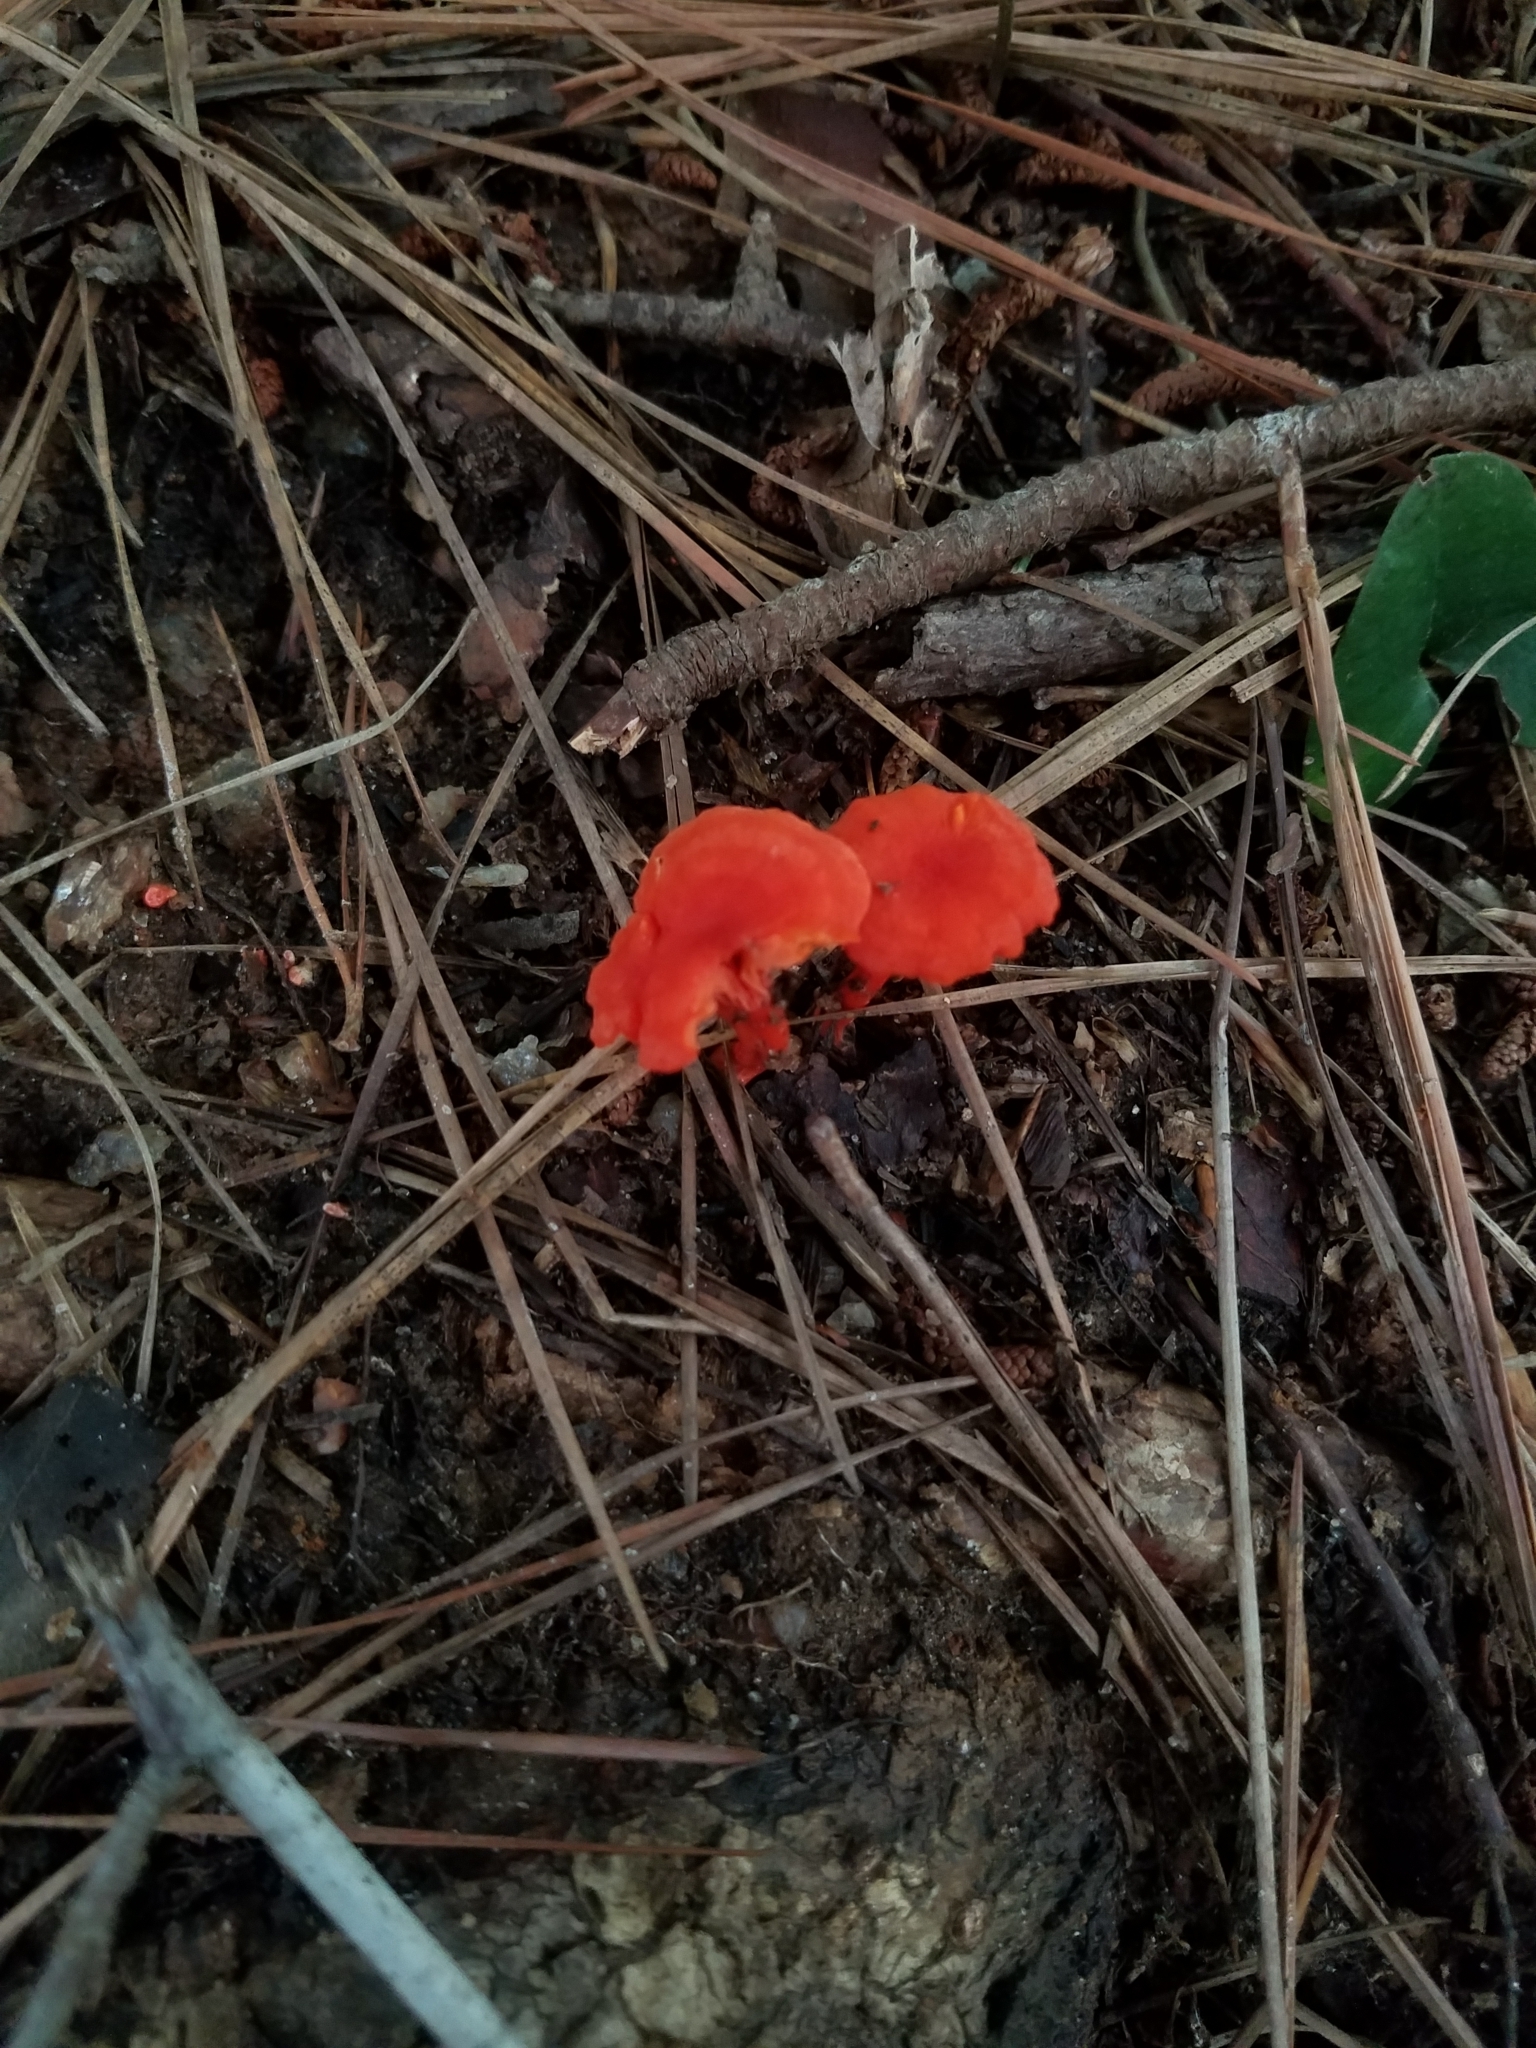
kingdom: Fungi
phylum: Basidiomycota
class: Agaricomycetes
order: Cantharellales
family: Hydnaceae
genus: Cantharellus
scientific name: Cantharellus cinnabarinus
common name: Cinnabar chanterelle
